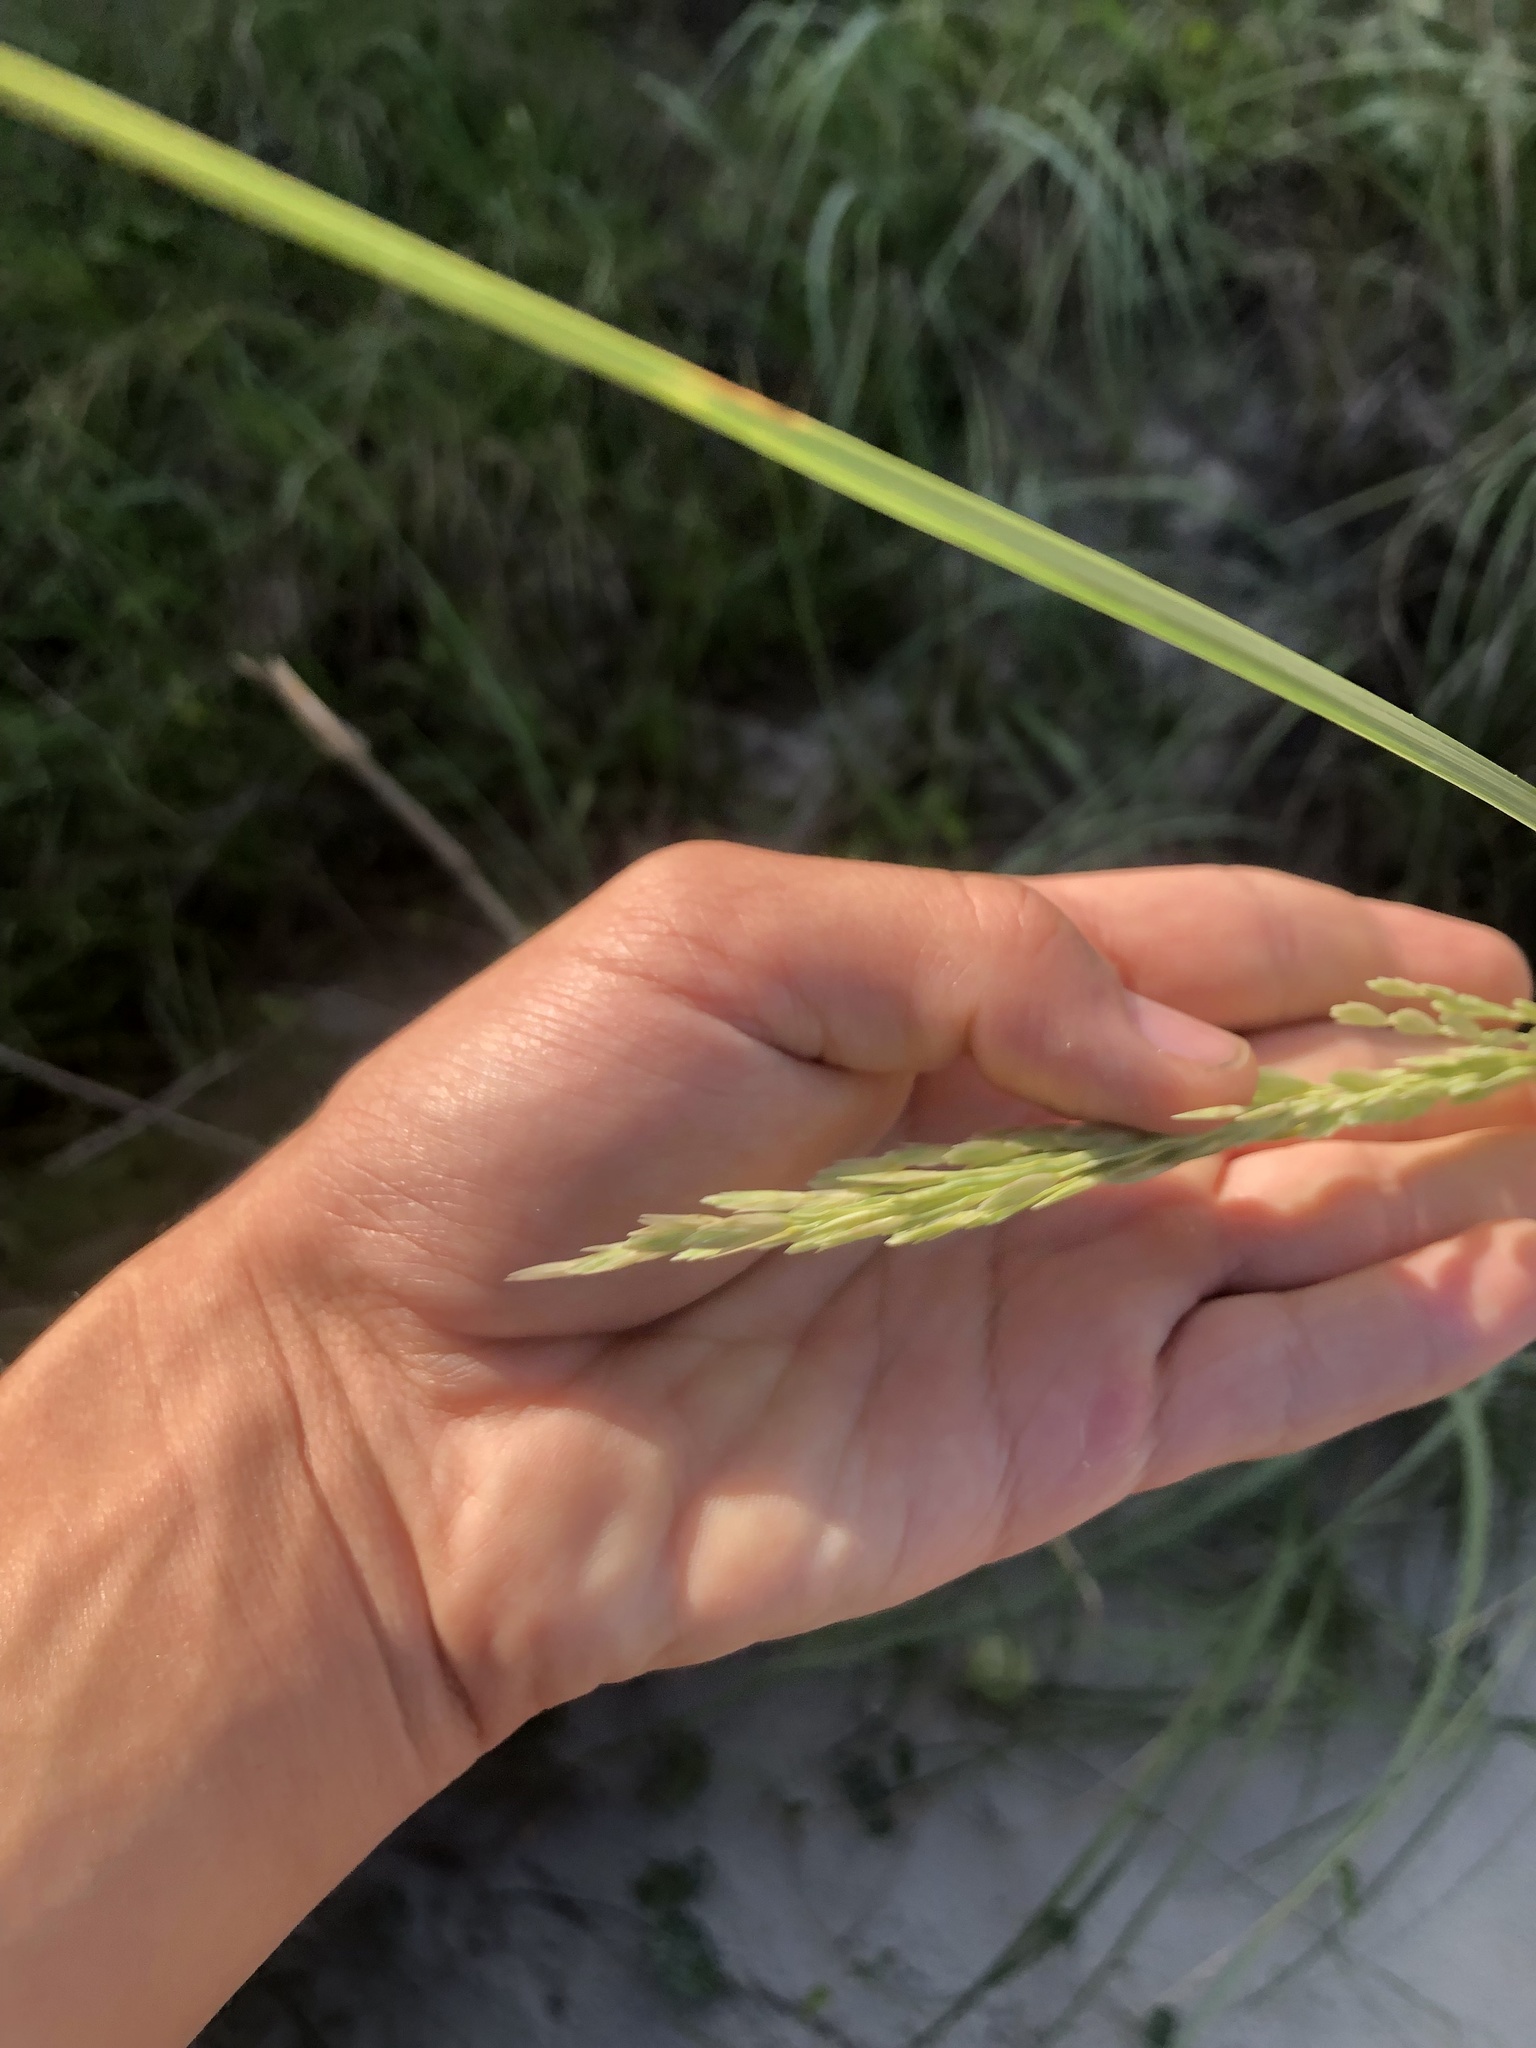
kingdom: Plantae
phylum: Tracheophyta
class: Liliopsida
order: Poales
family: Poaceae
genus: Panicum
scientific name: Panicum amarum
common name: Bitter panicum
